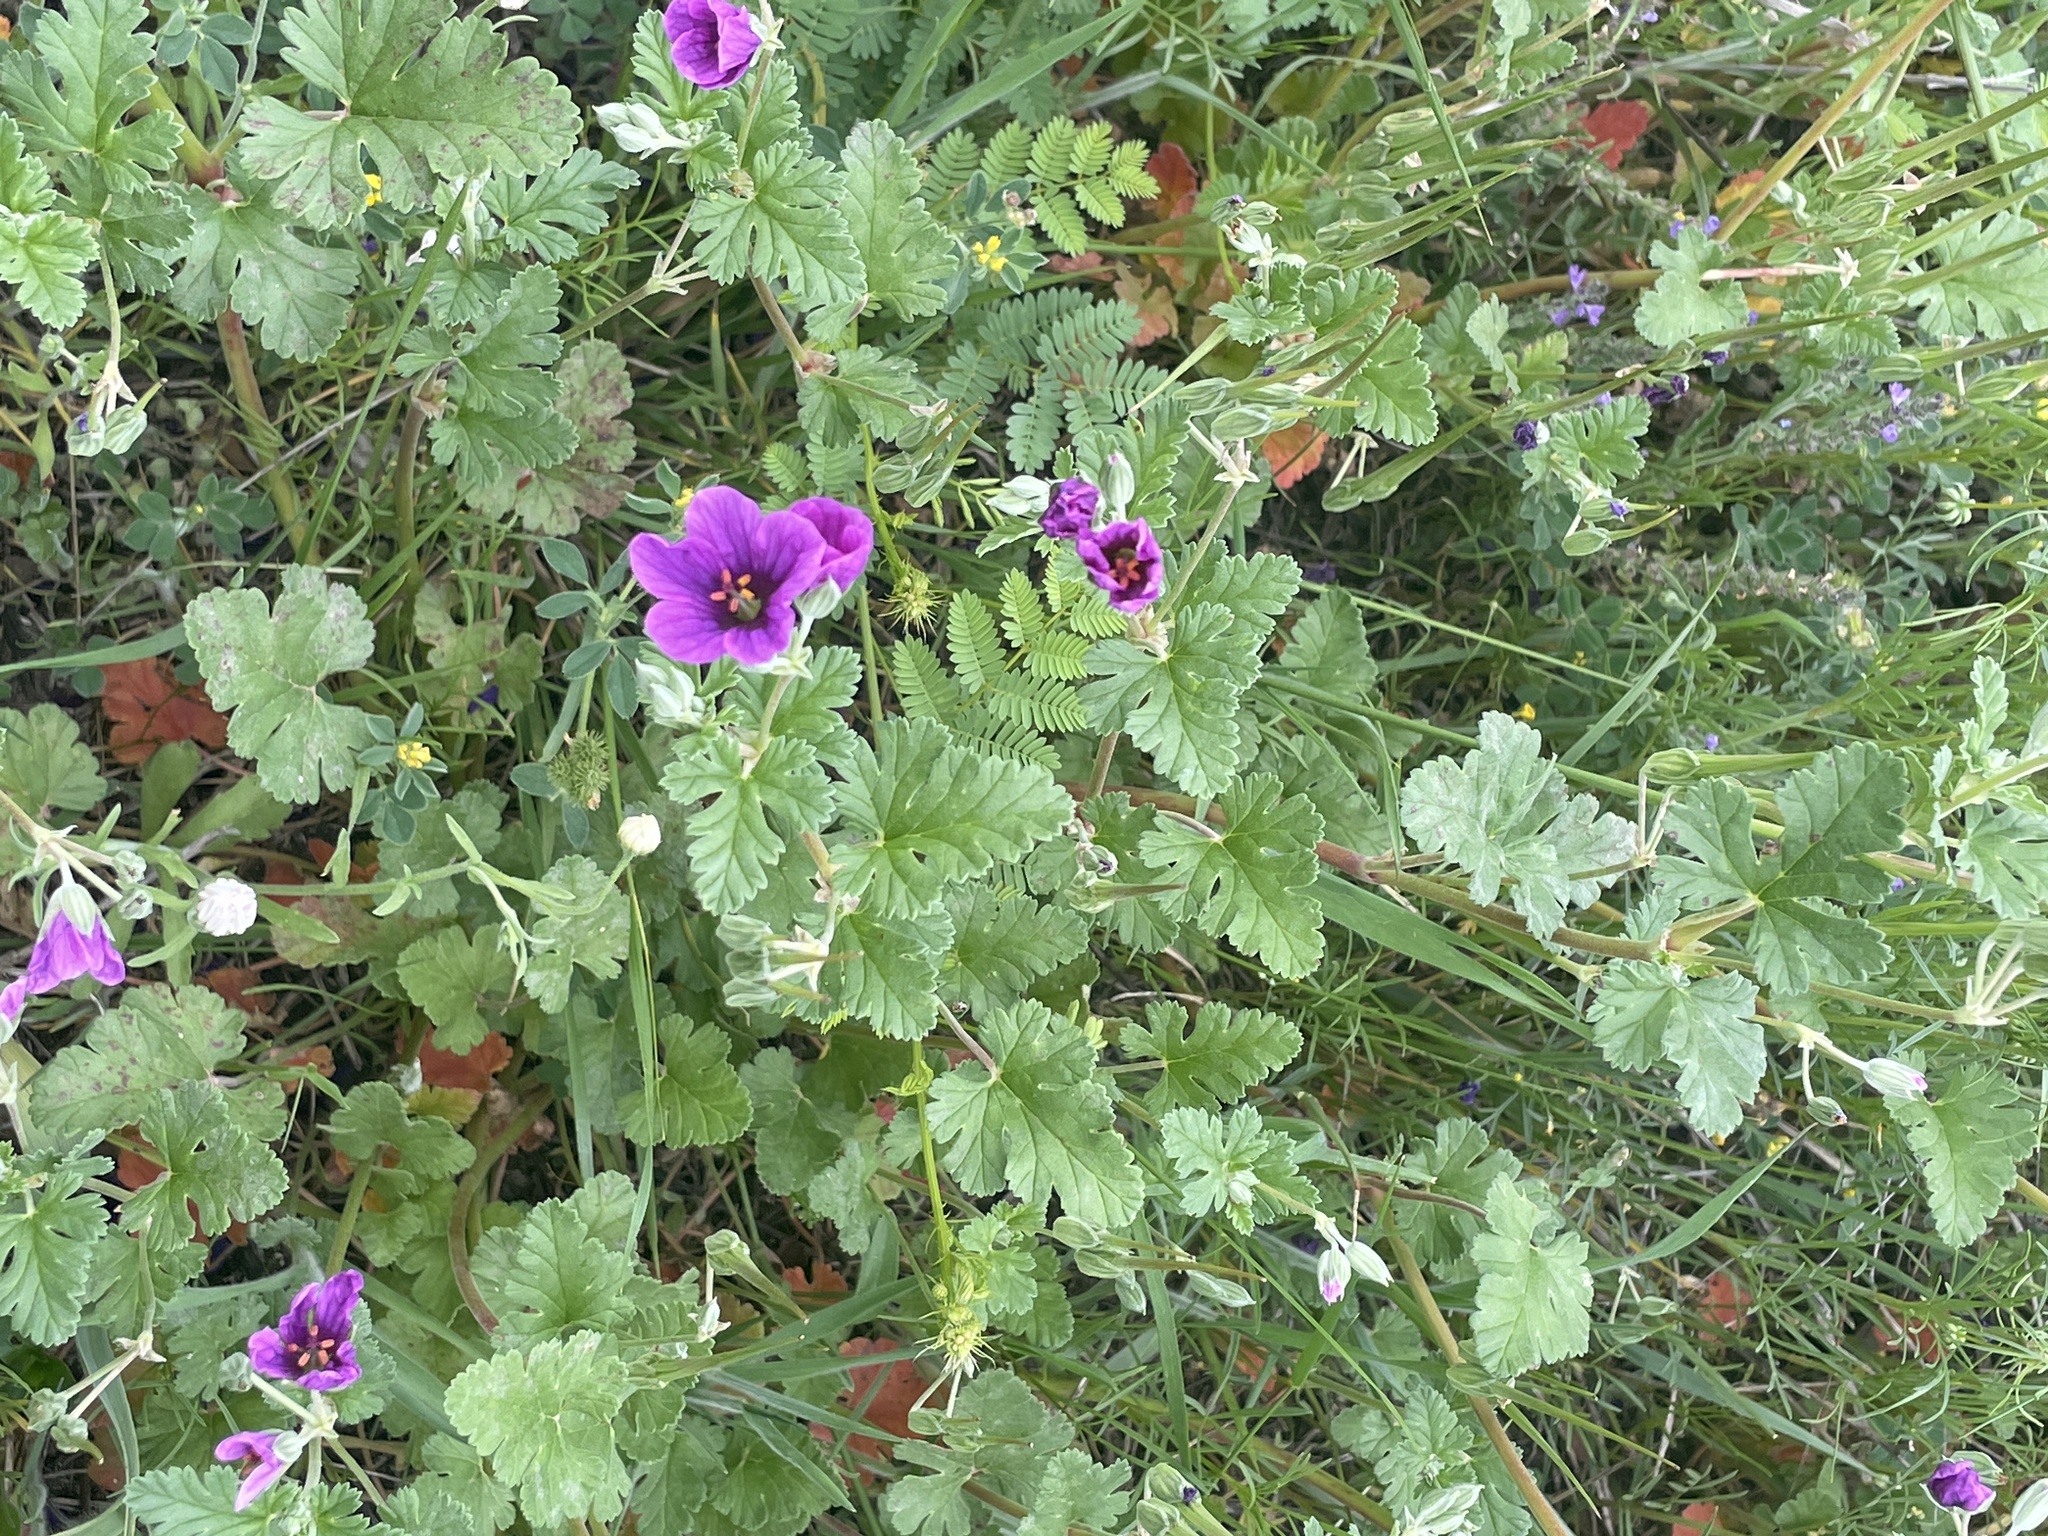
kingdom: Plantae
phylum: Tracheophyta
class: Magnoliopsida
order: Geraniales
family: Geraniaceae
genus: Erodium
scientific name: Erodium texanum
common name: Texas stork's-bill
